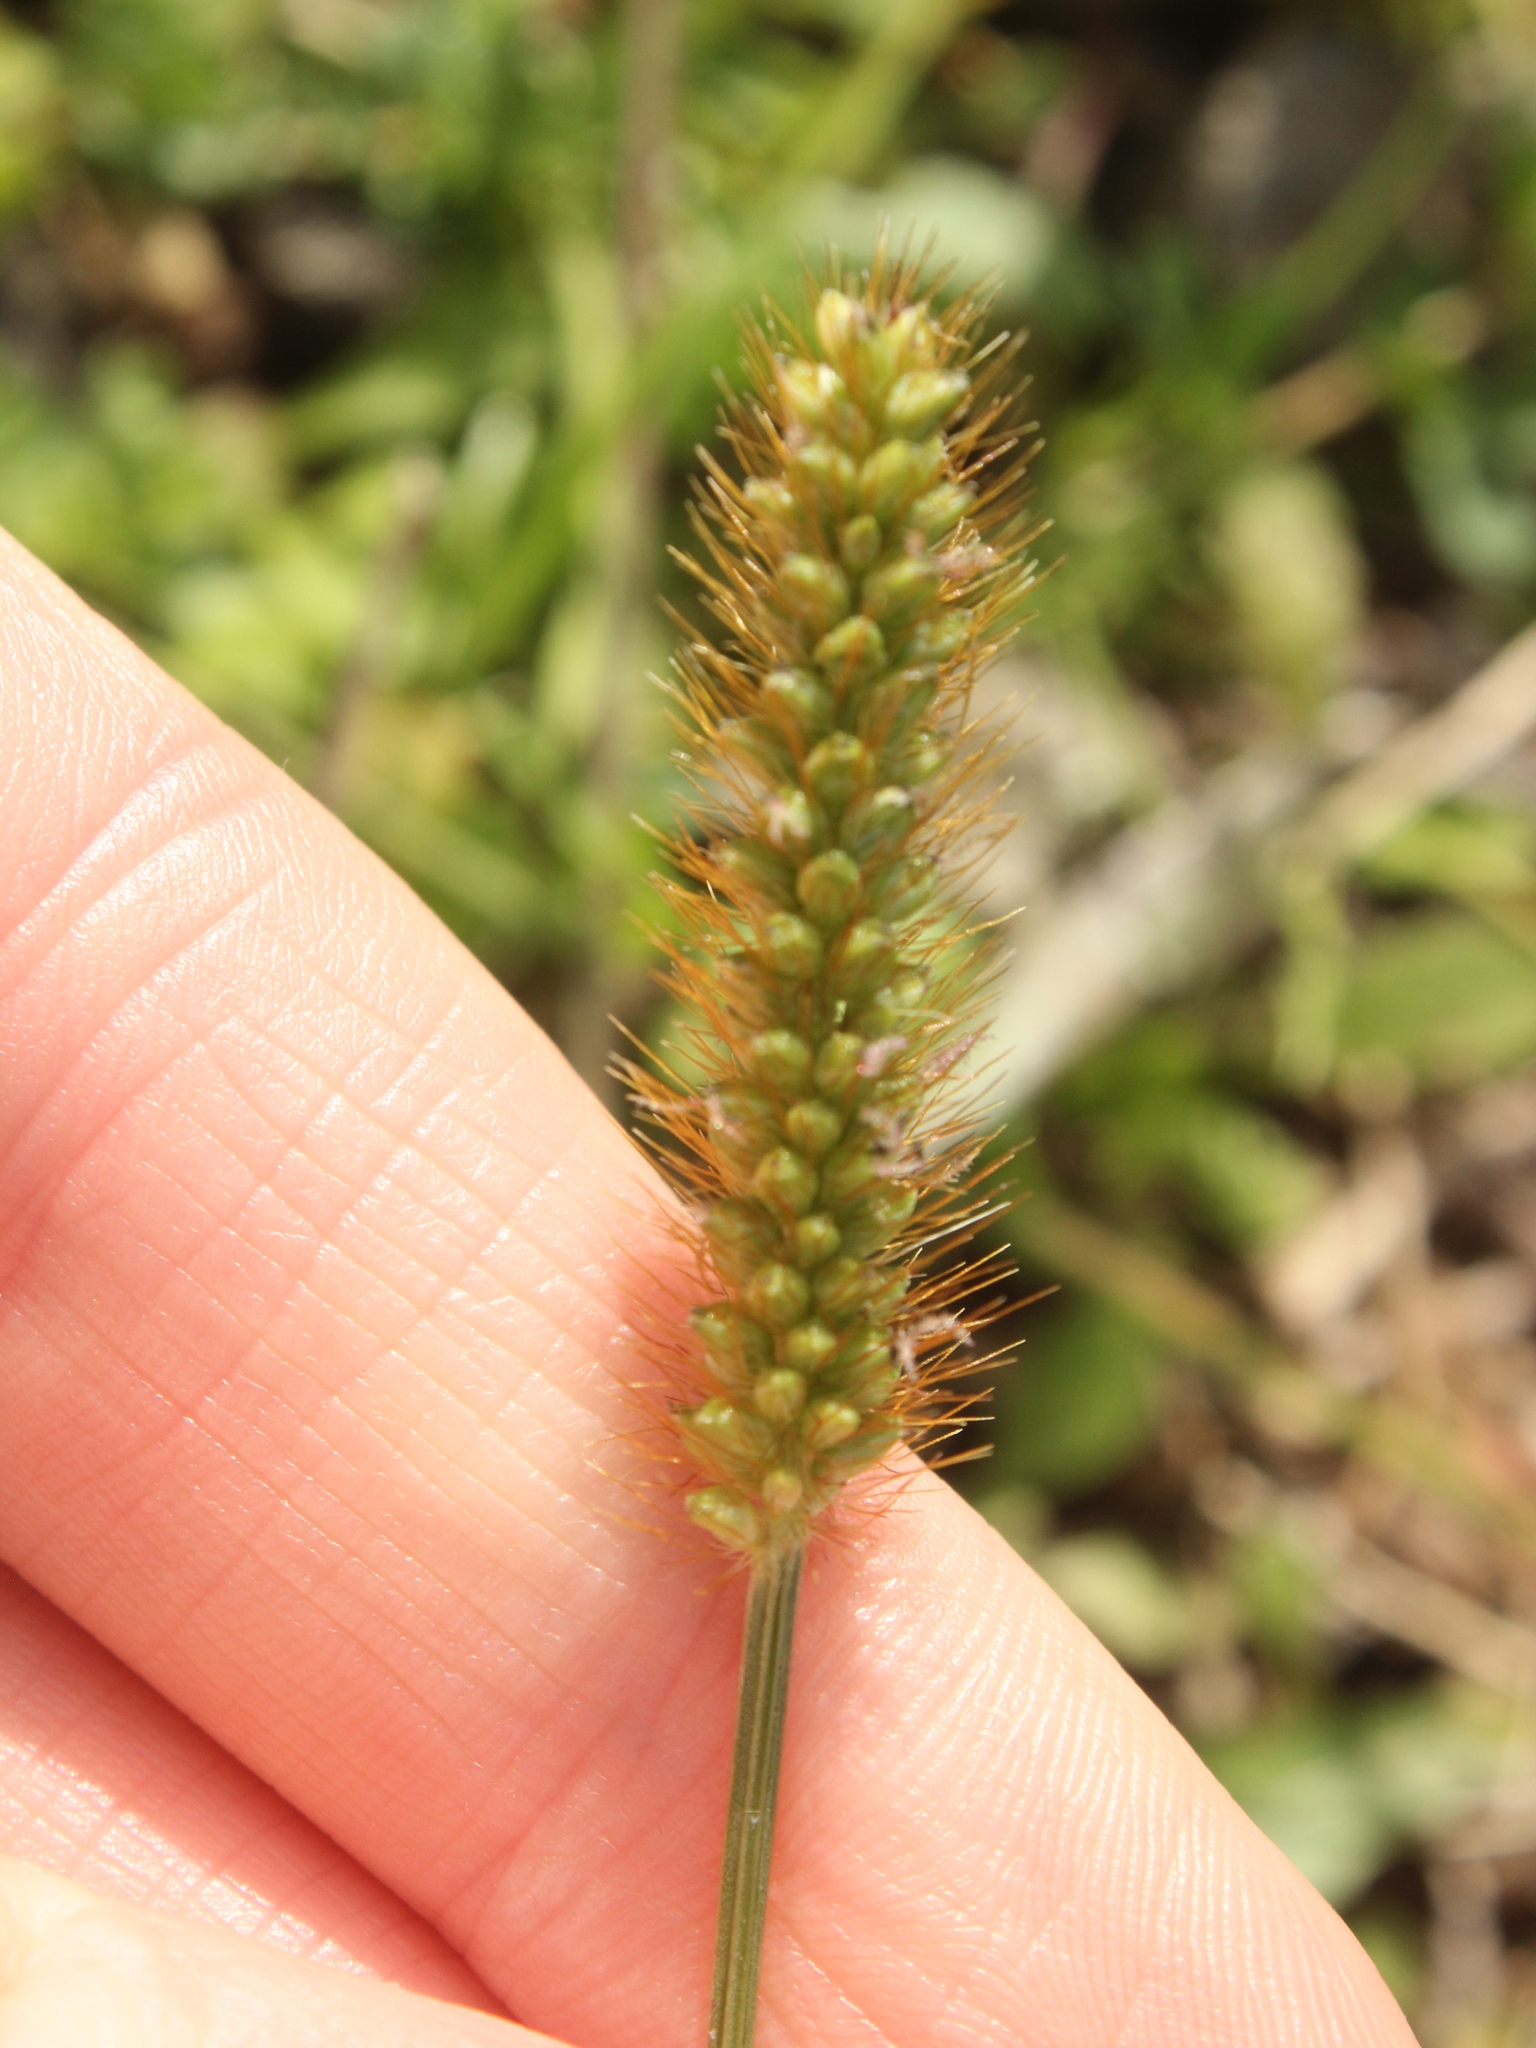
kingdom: Plantae
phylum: Tracheophyta
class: Liliopsida
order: Poales
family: Poaceae
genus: Setaria
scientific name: Setaria pumila
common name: Yellow bristle-grass
